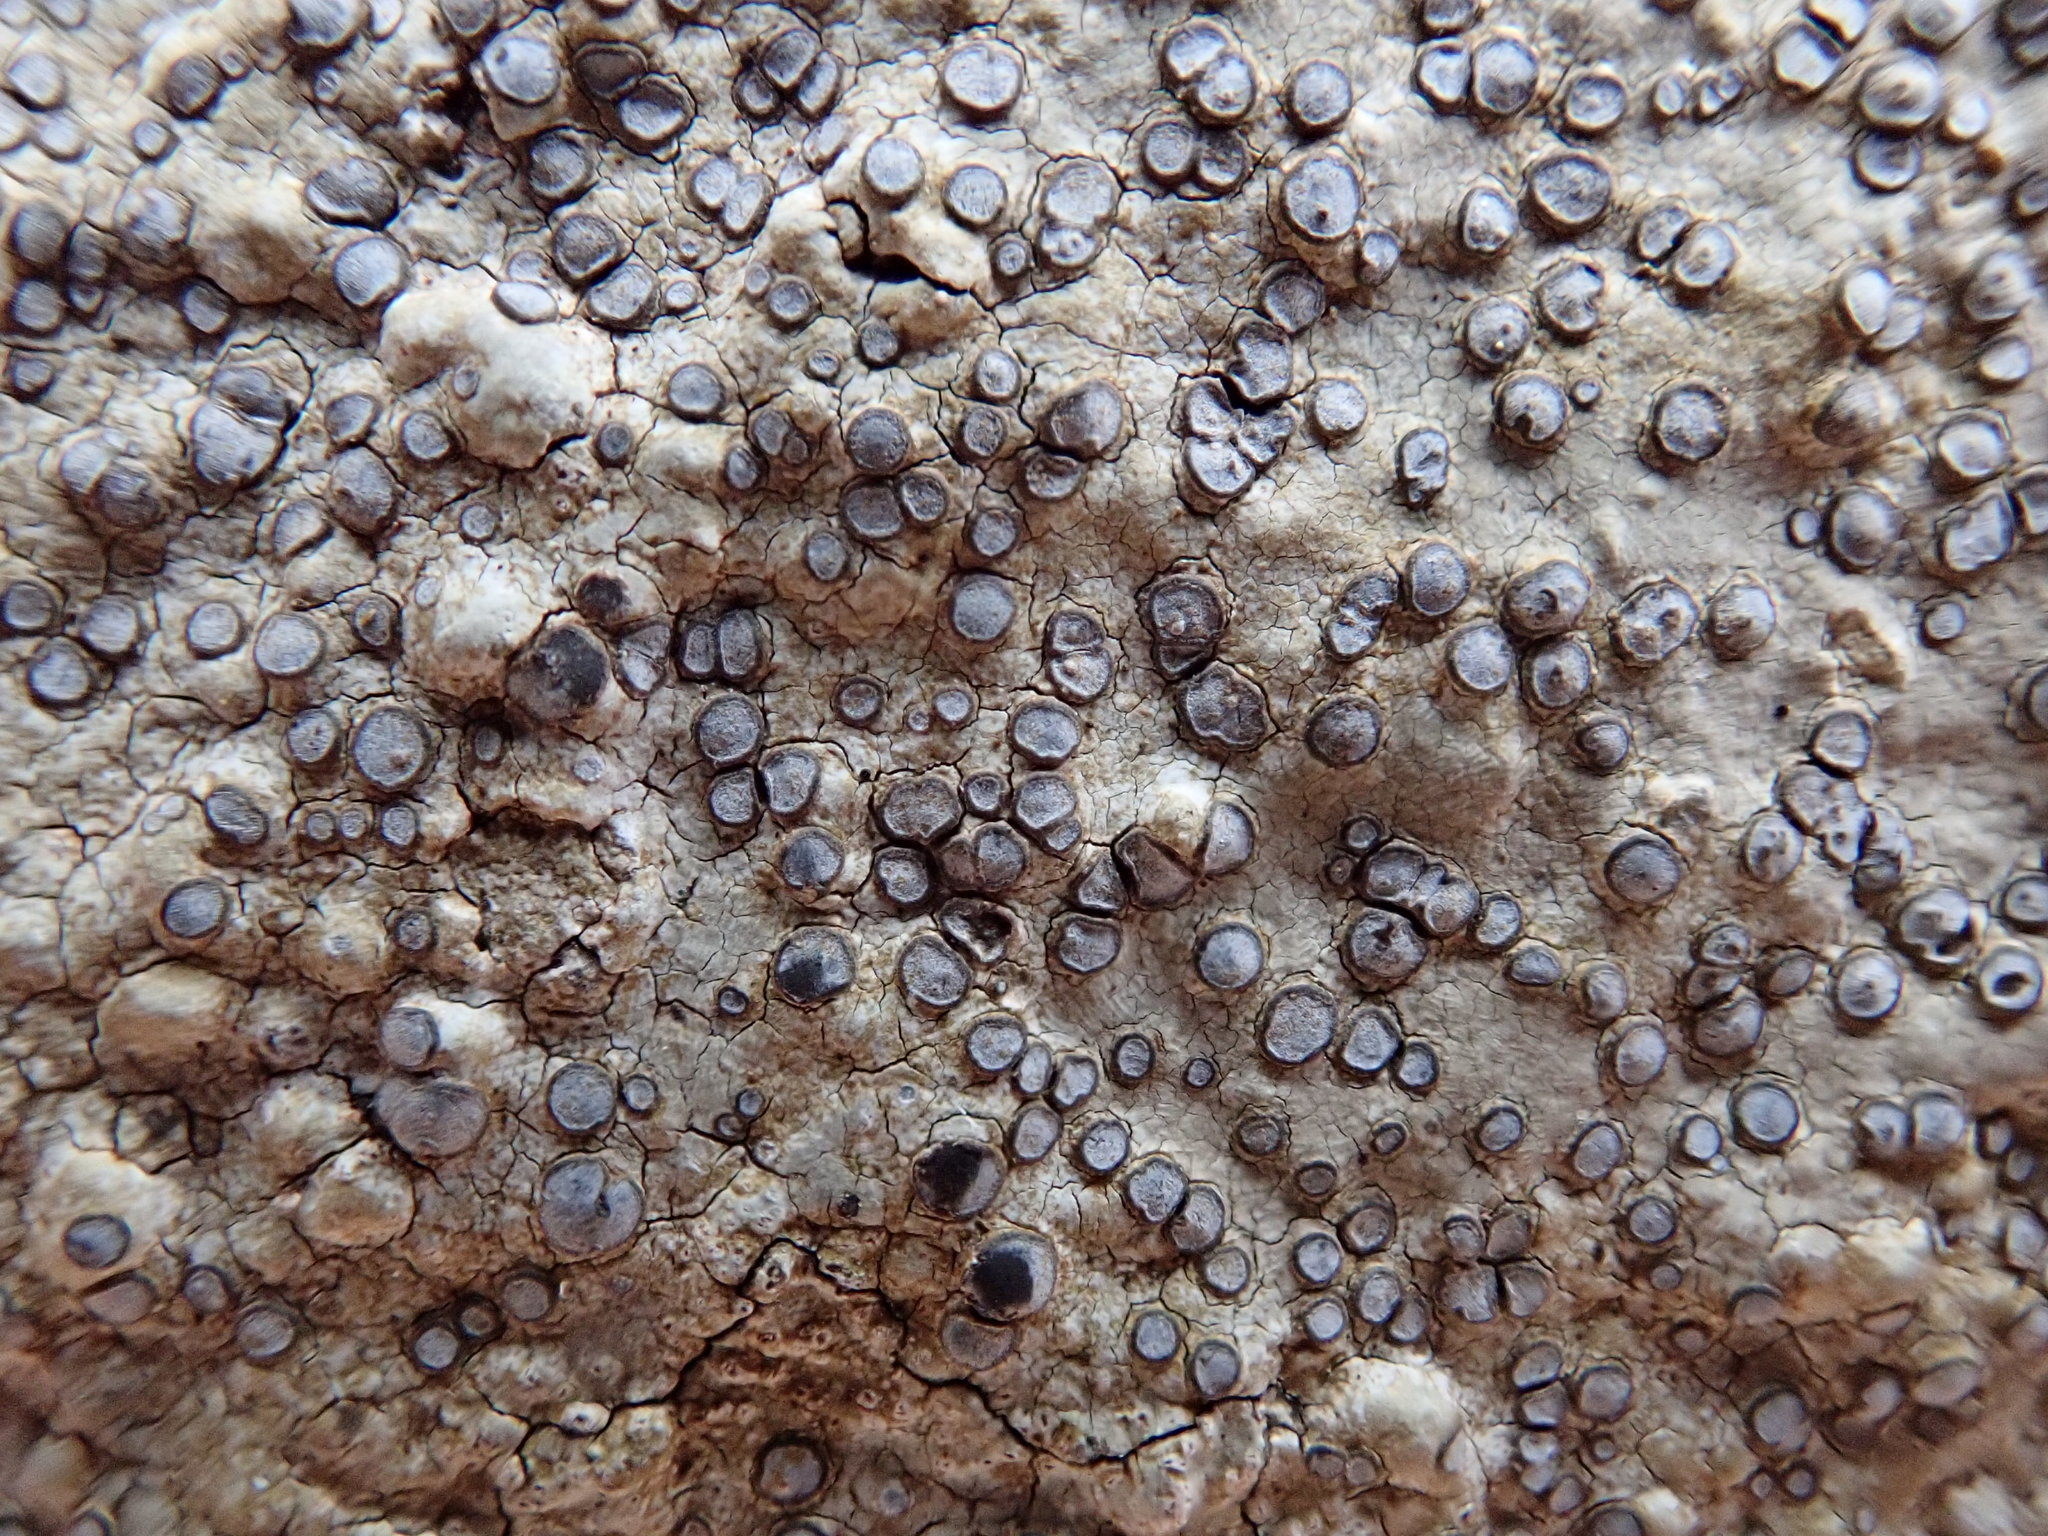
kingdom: Fungi
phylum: Ascomycota
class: Lecanoromycetes
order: Lecideales
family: Lecideaceae
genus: Porpidia
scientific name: Porpidia albocaerulescens
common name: Smokey-eyed boulder lichen
